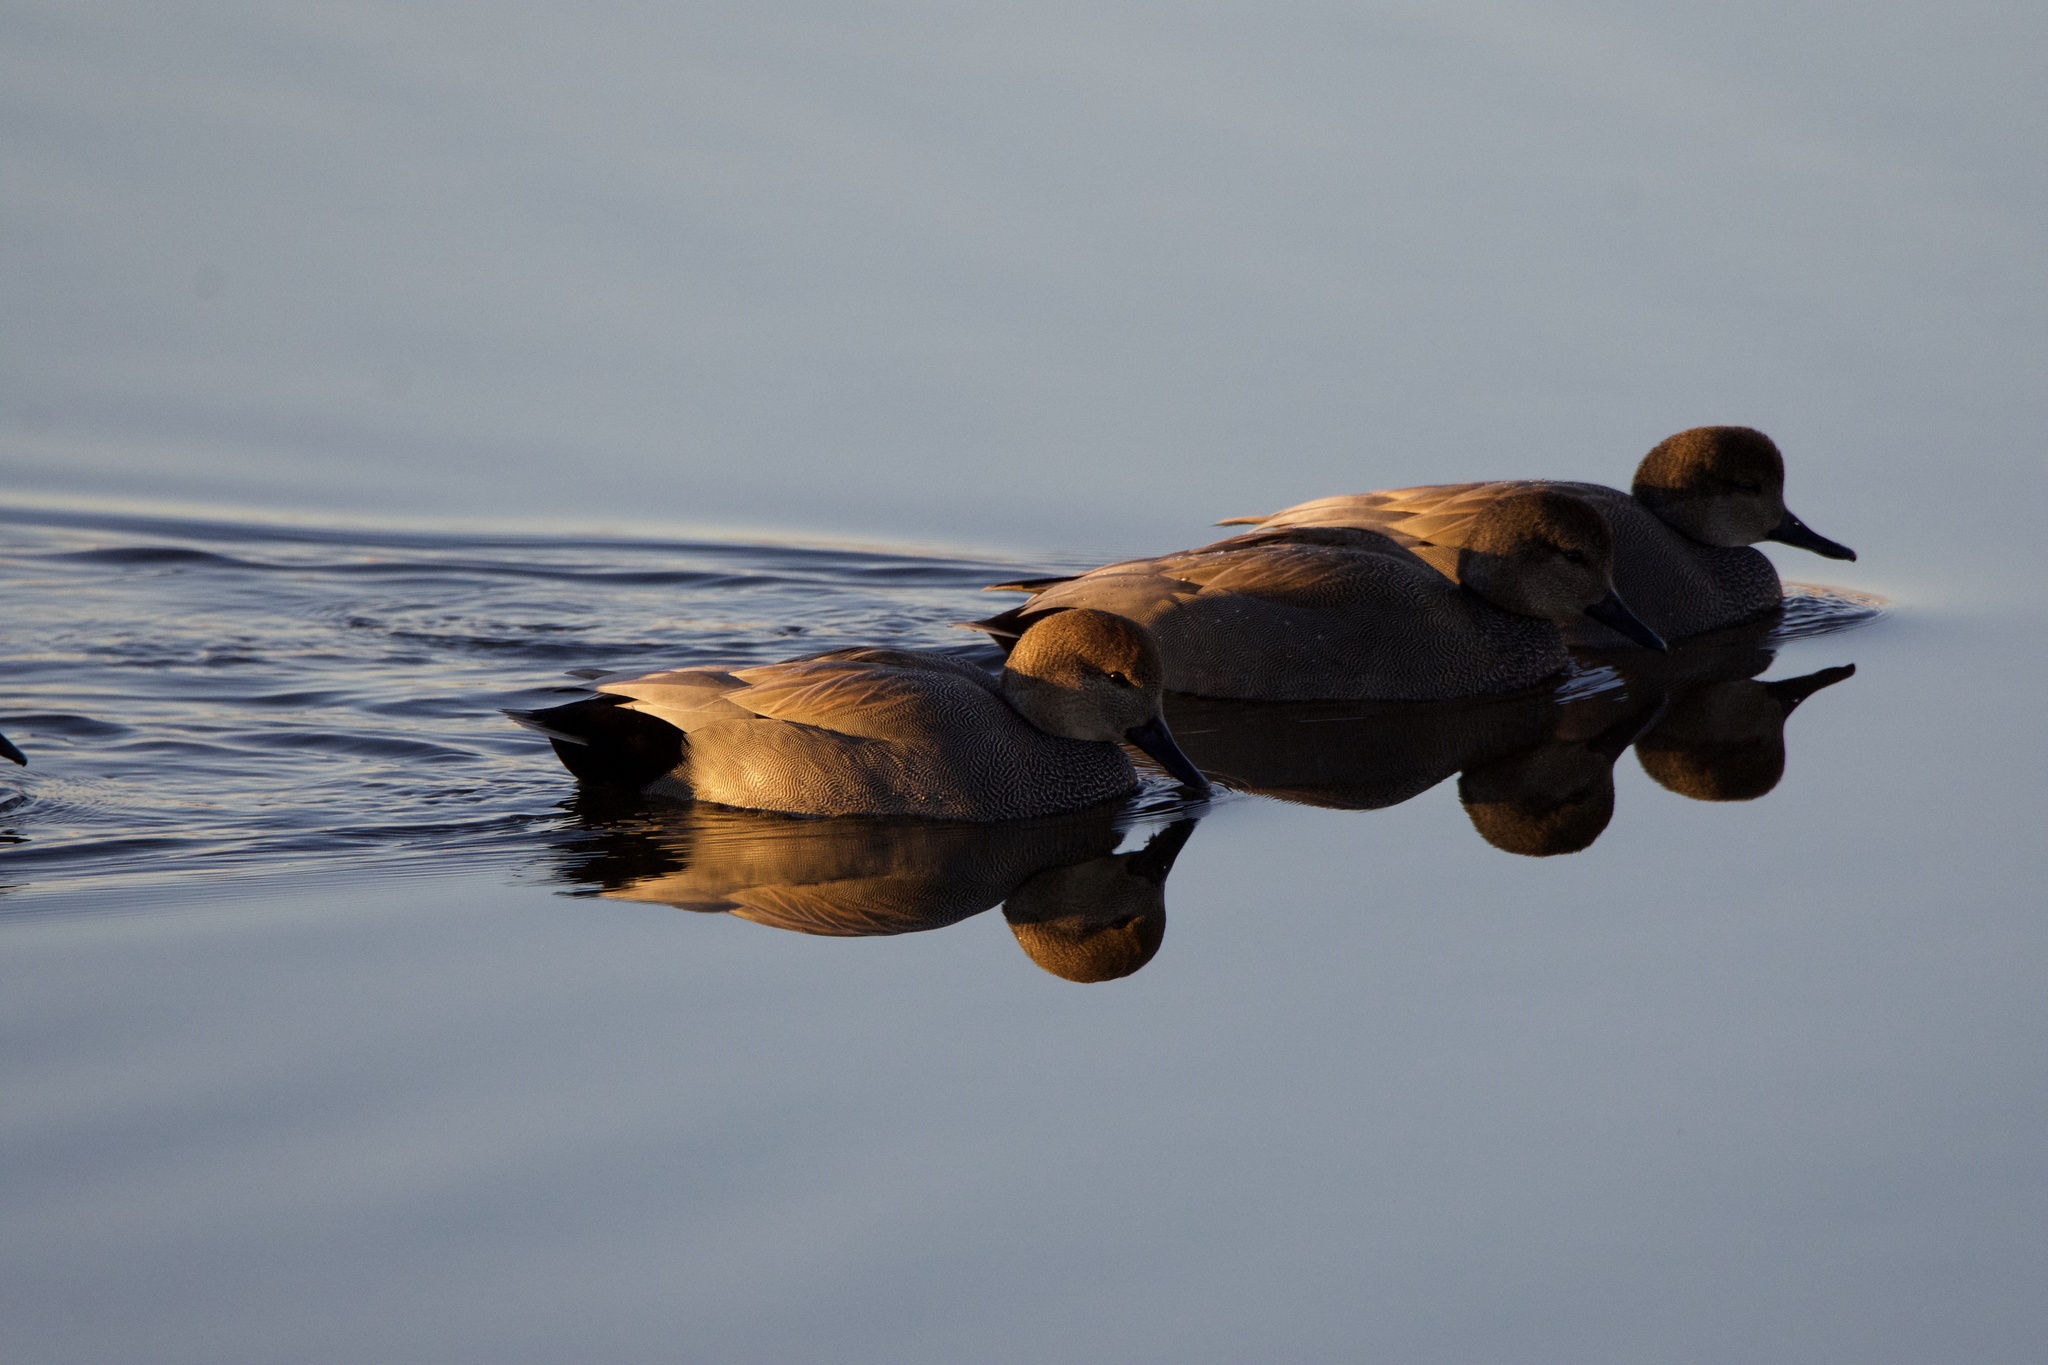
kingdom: Animalia
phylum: Chordata
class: Aves
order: Anseriformes
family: Anatidae
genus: Mareca
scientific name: Mareca strepera
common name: Gadwall
